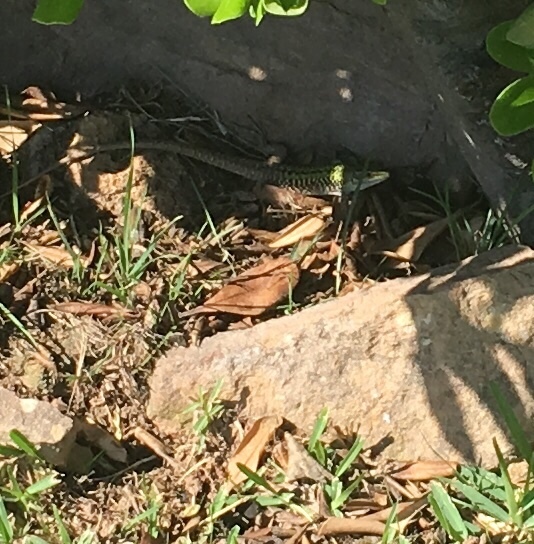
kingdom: Animalia
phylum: Chordata
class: Squamata
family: Lacertidae
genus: Podarcis
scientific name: Podarcis siculus
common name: Italian wall lizard
